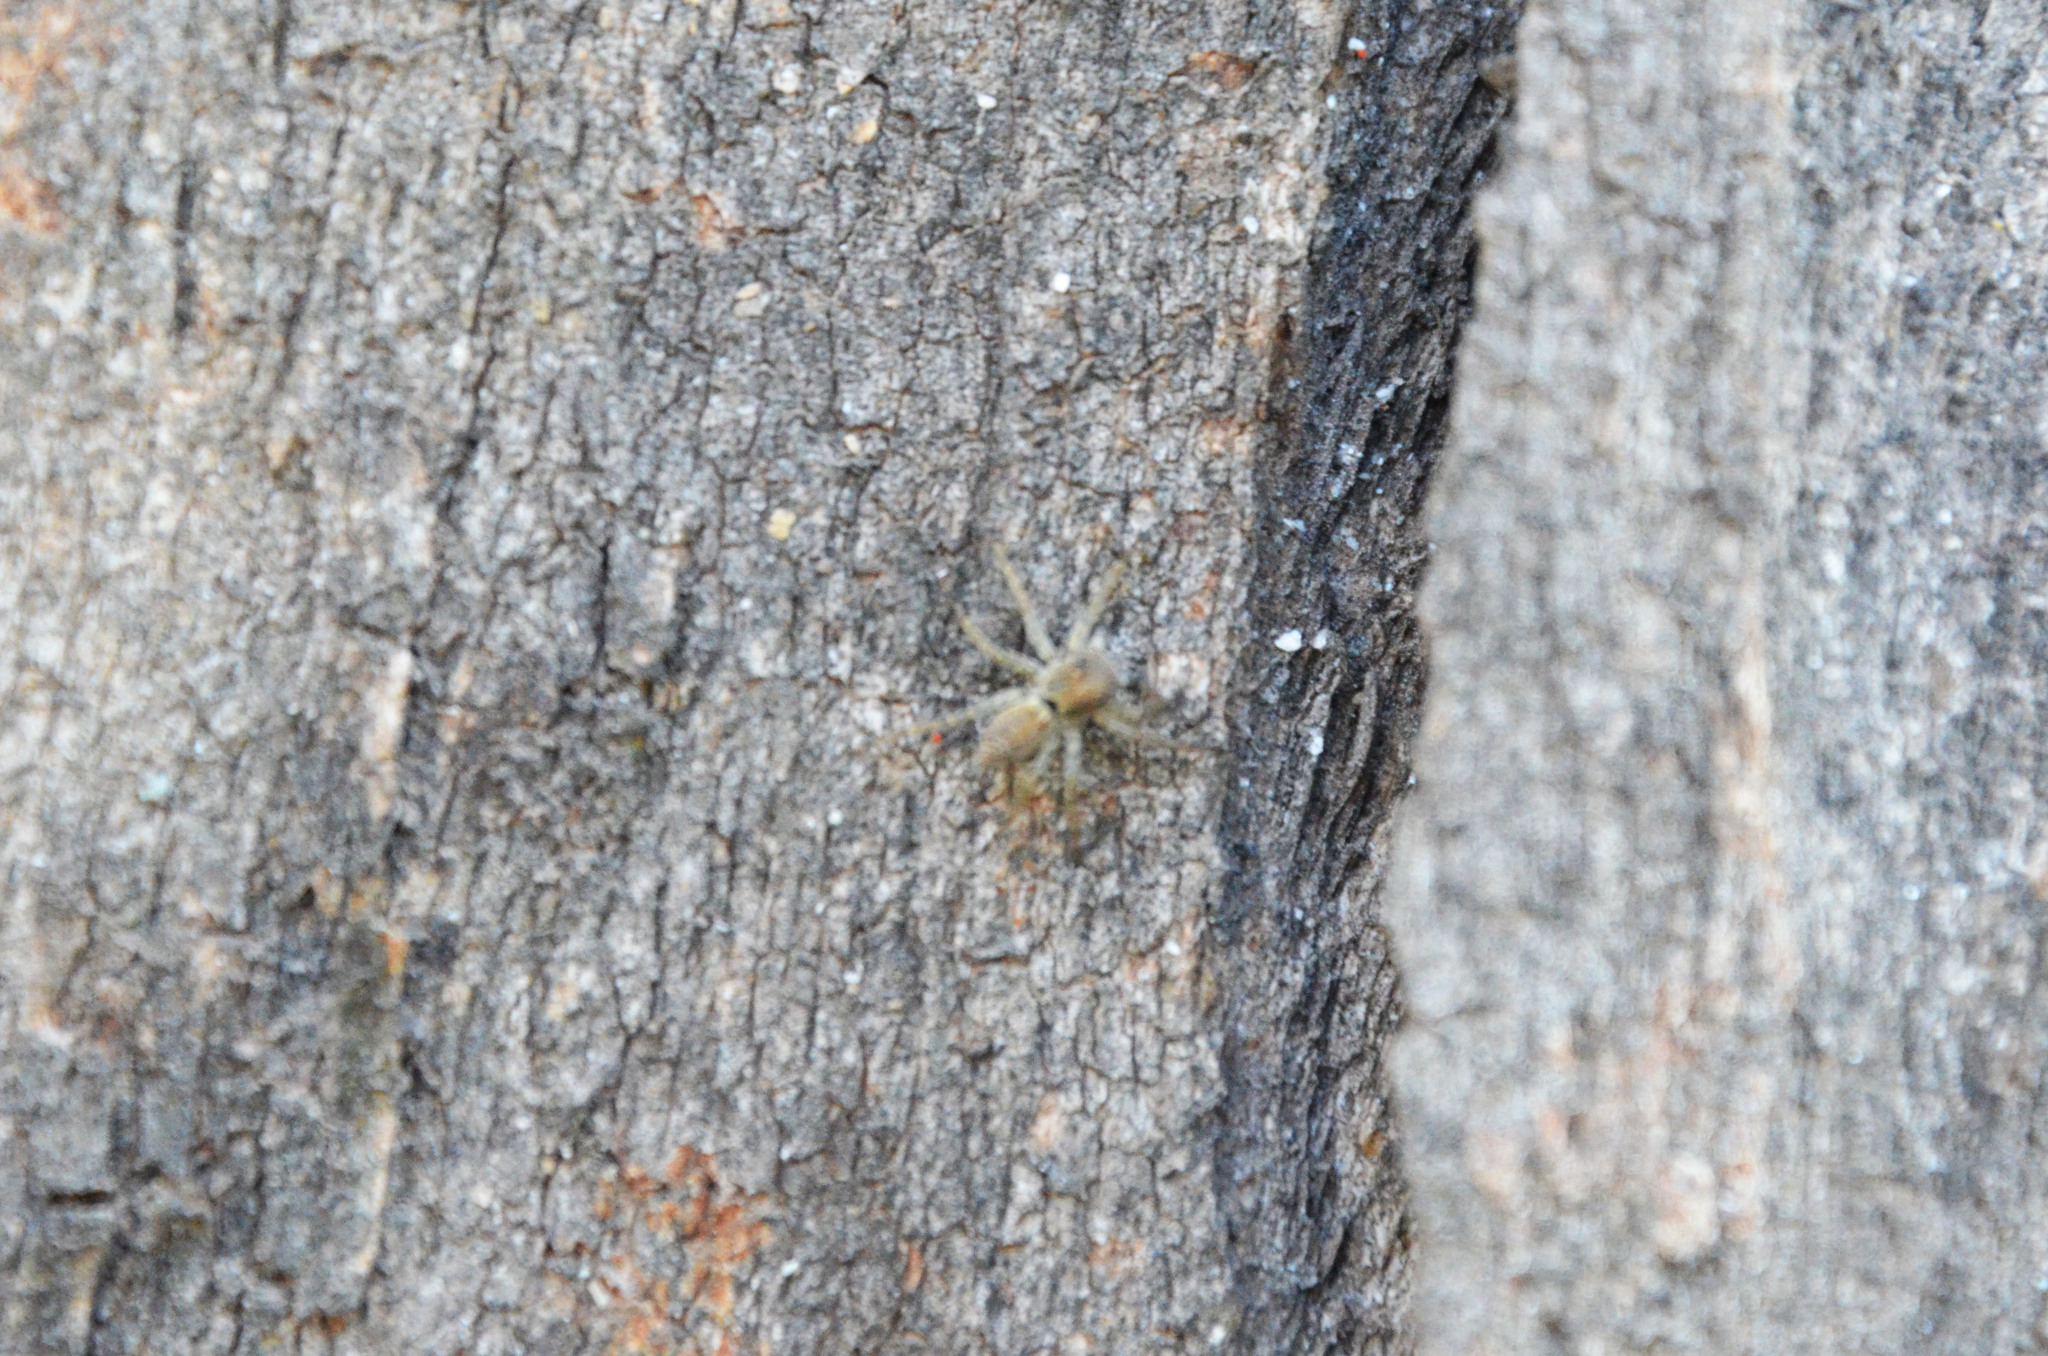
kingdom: Animalia
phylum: Arthropoda
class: Arachnida
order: Araneae
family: Salticidae
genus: Saitis
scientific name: Saitis variegatus
